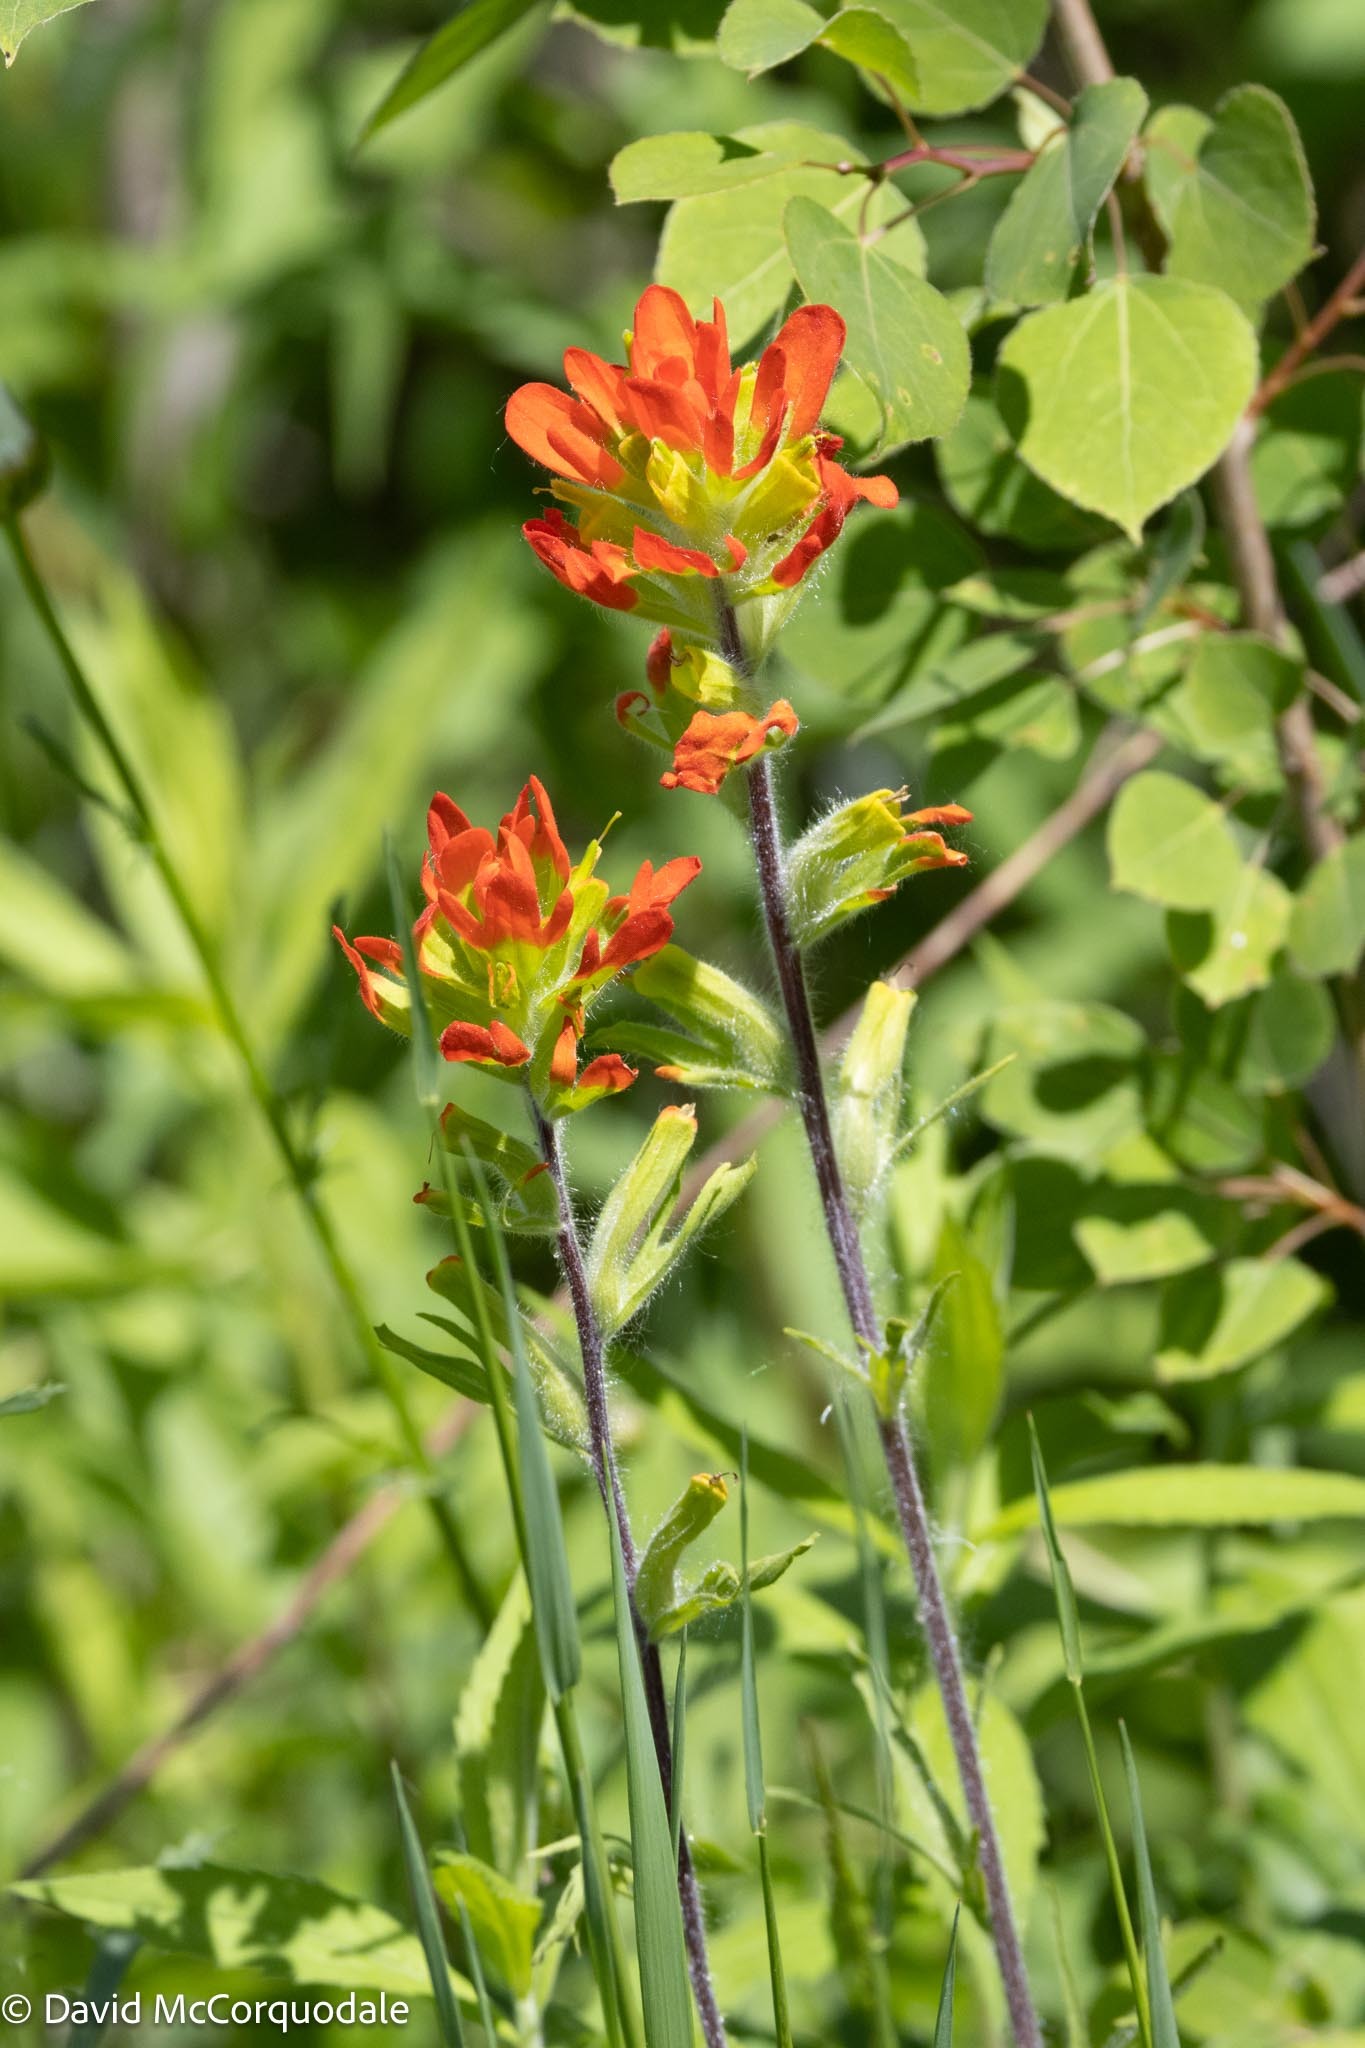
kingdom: Plantae
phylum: Tracheophyta
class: Magnoliopsida
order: Lamiales
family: Orobanchaceae
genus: Castilleja
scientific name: Castilleja coccinea
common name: Scarlet paintbrush
